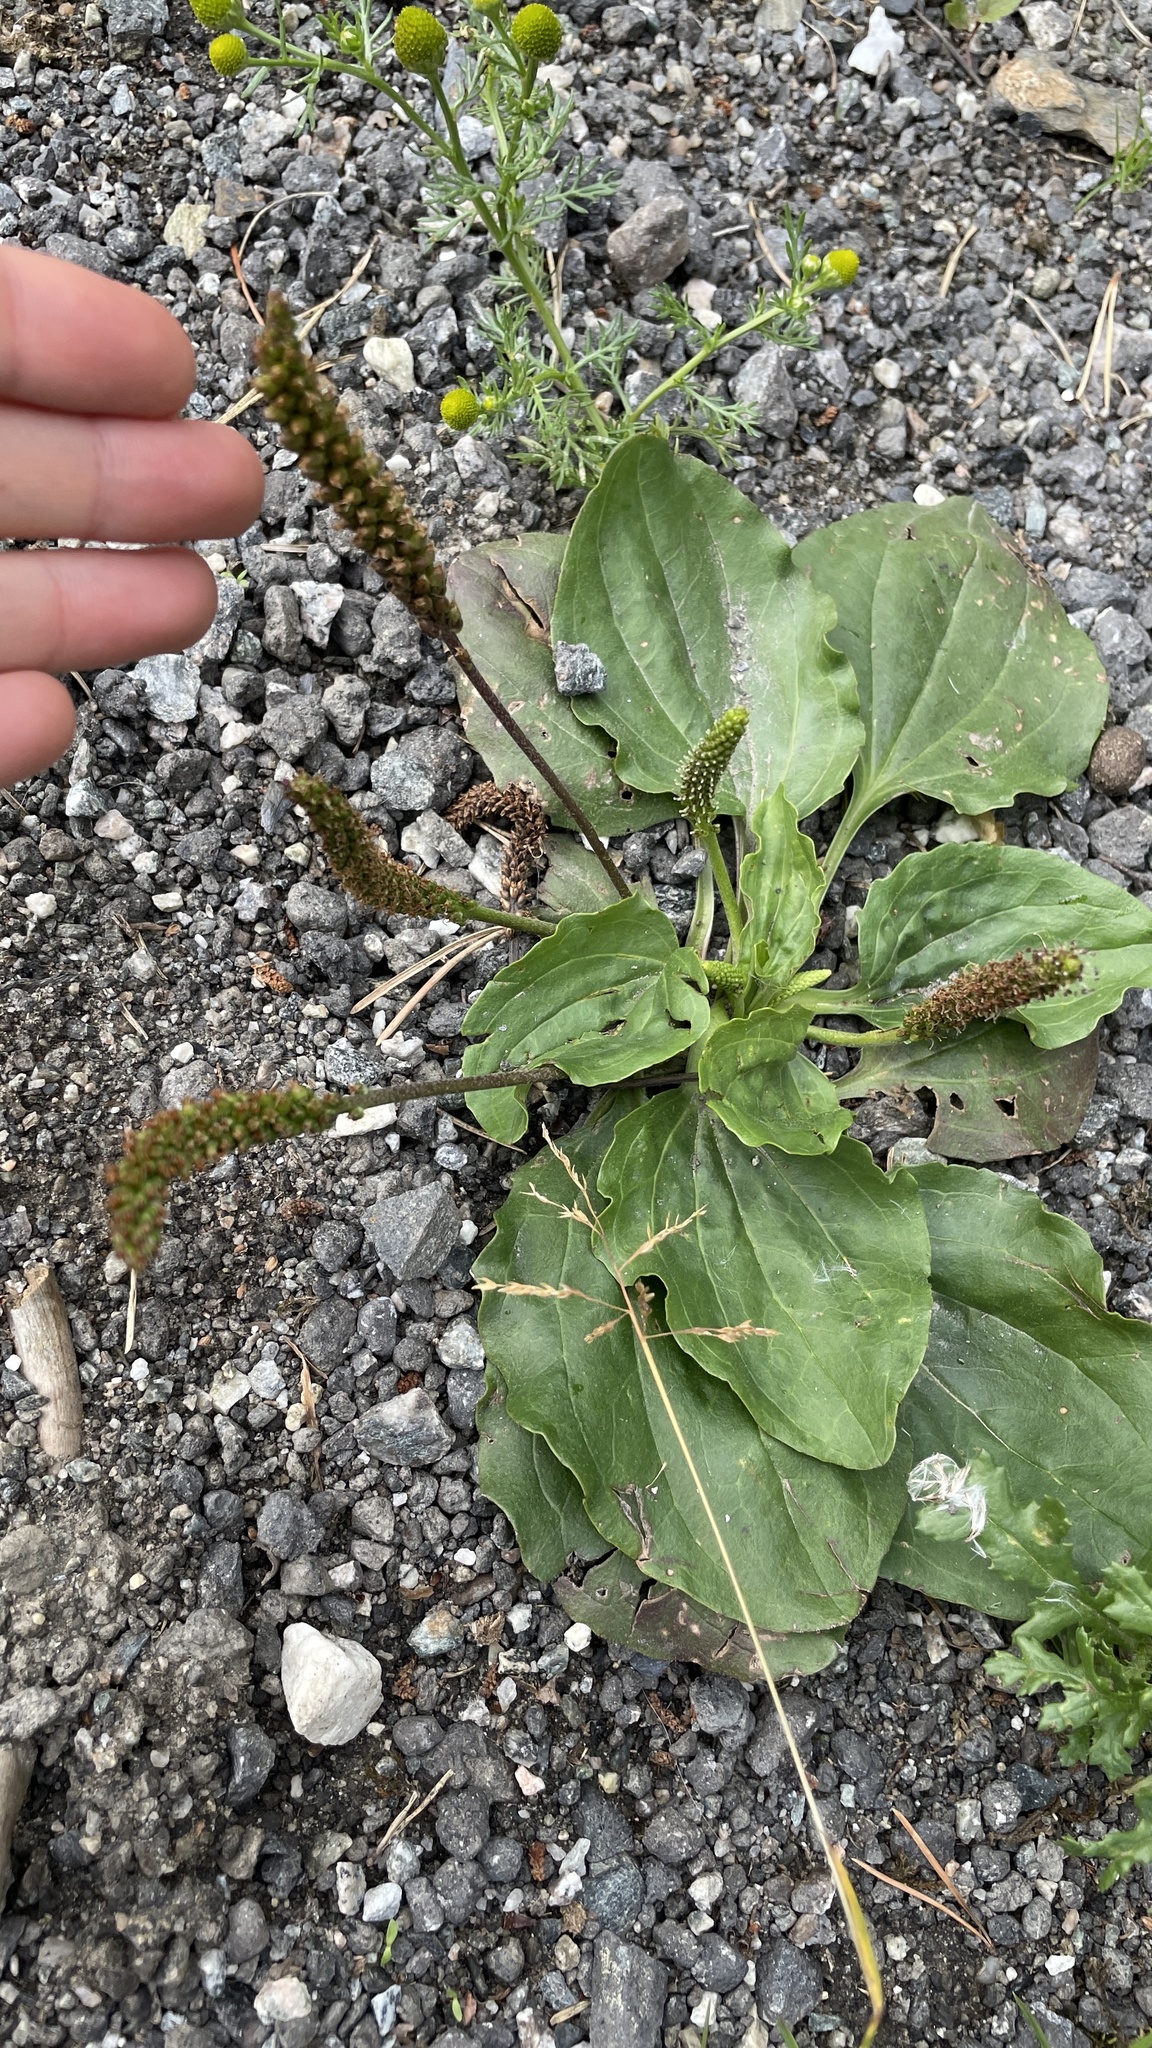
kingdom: Plantae
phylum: Tracheophyta
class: Magnoliopsida
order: Lamiales
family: Plantaginaceae
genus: Plantago
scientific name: Plantago major
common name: Common plantain
